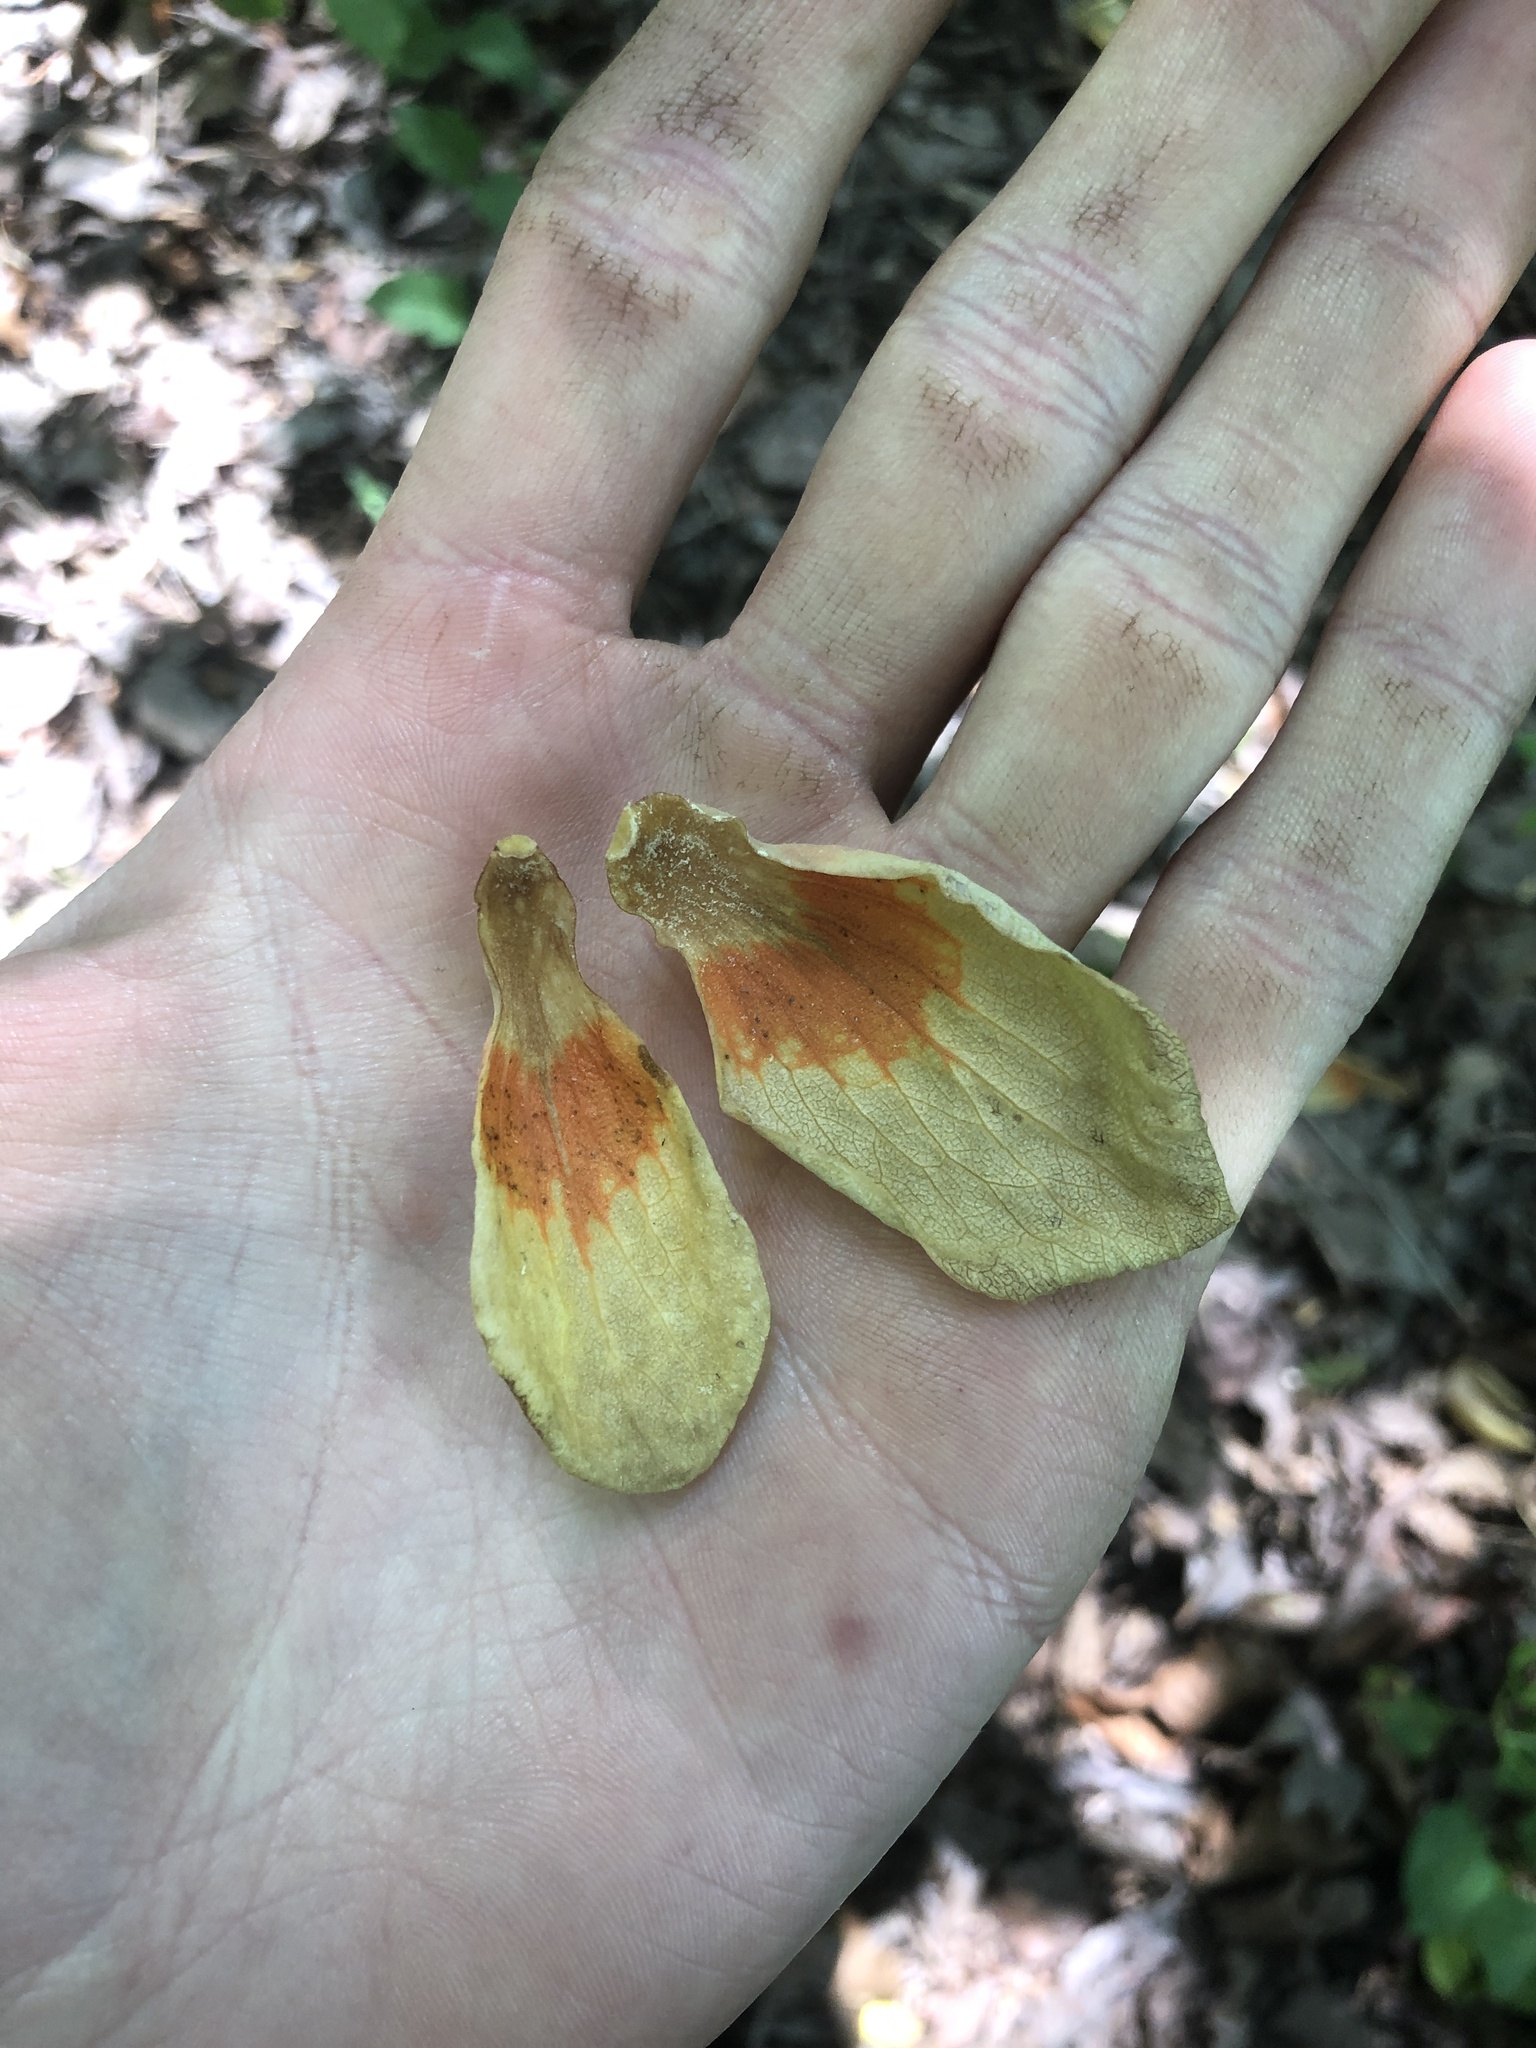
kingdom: Plantae
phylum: Tracheophyta
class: Magnoliopsida
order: Magnoliales
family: Magnoliaceae
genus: Liriodendron
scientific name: Liriodendron tulipifera
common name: Tulip tree
